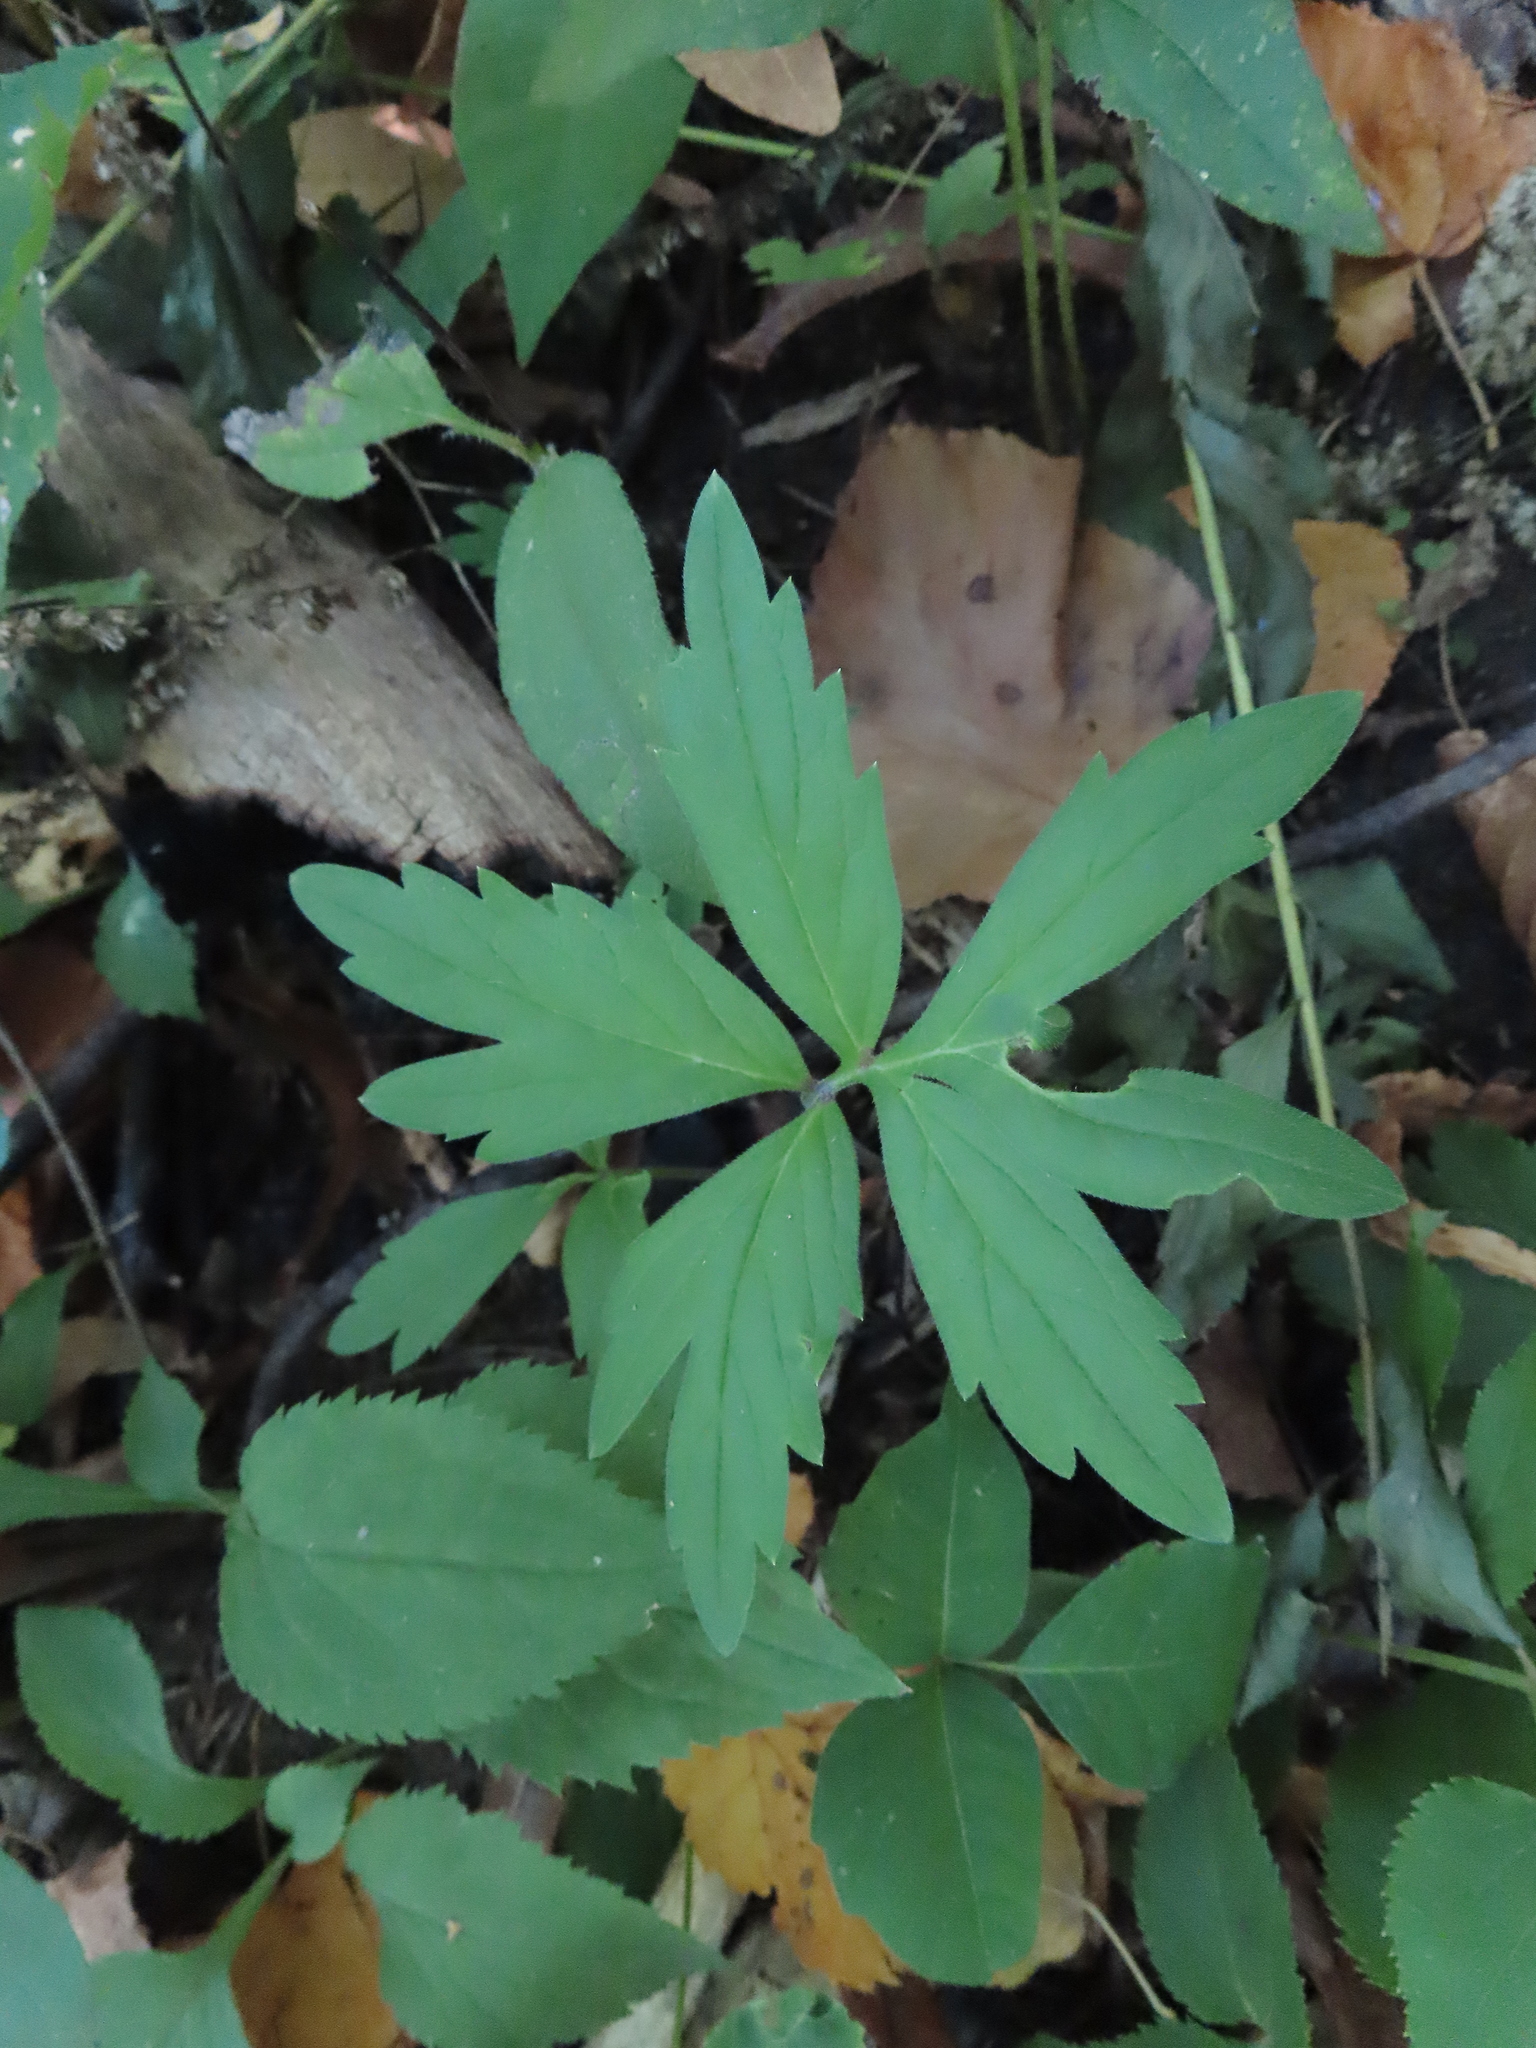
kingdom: Plantae
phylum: Tracheophyta
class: Magnoliopsida
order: Boraginales
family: Hydrophyllaceae
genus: Hydrophyllum
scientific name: Hydrophyllum virginianum
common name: Virginia waterleaf
